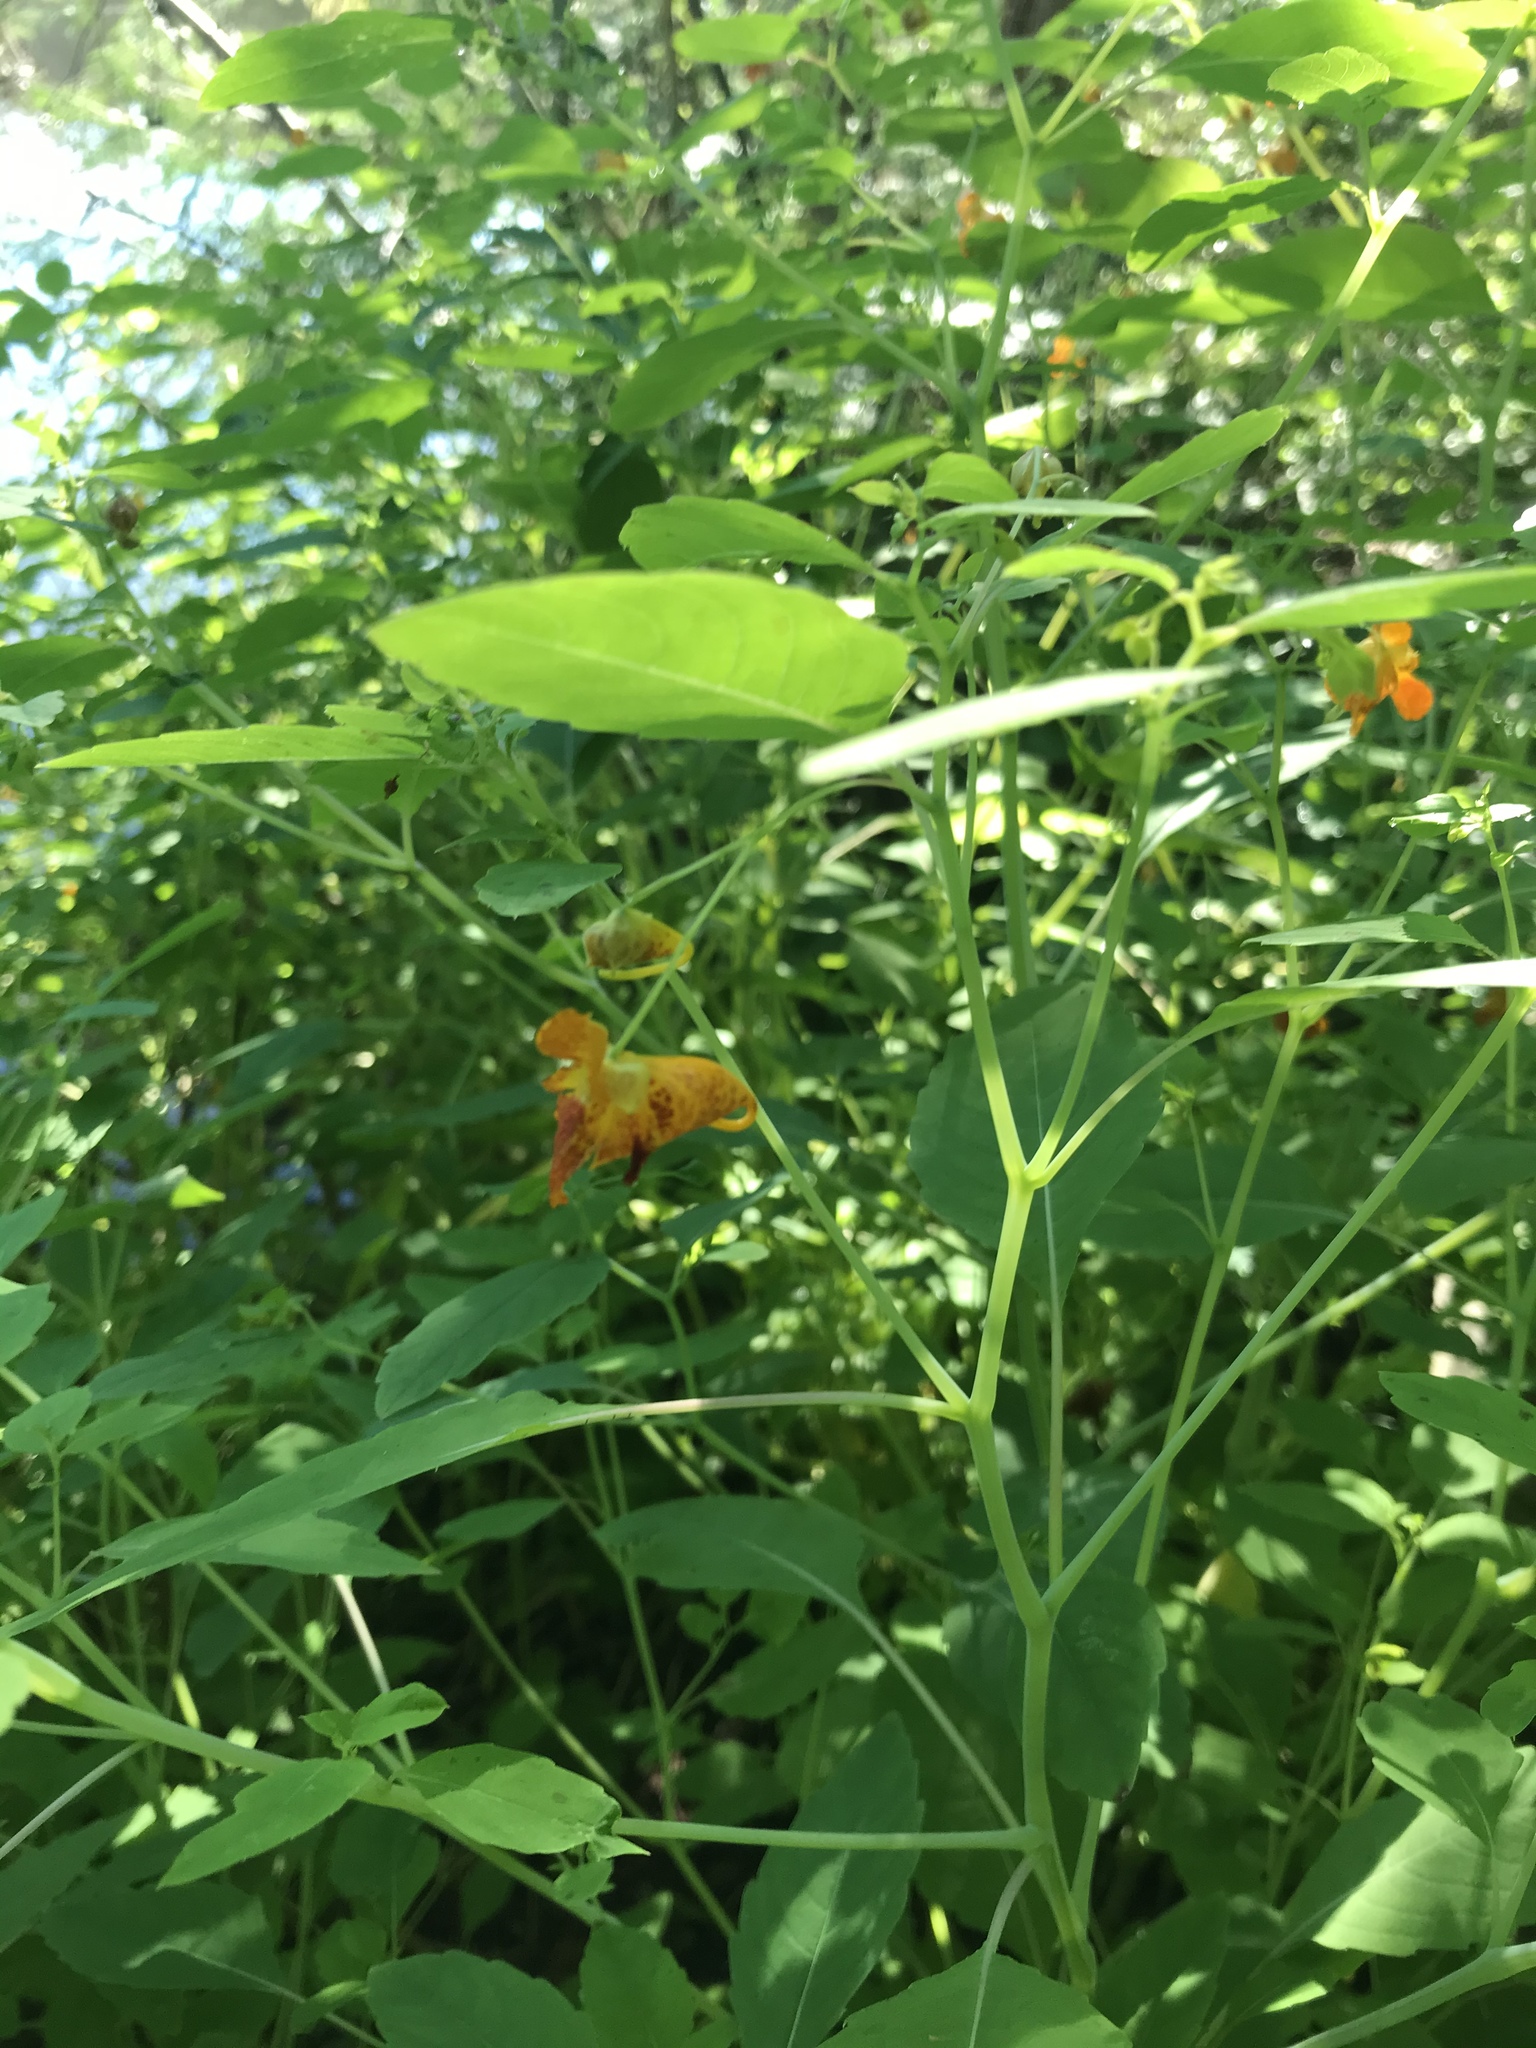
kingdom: Plantae
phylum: Tracheophyta
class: Magnoliopsida
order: Ericales
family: Balsaminaceae
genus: Impatiens
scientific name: Impatiens capensis
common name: Orange balsam
